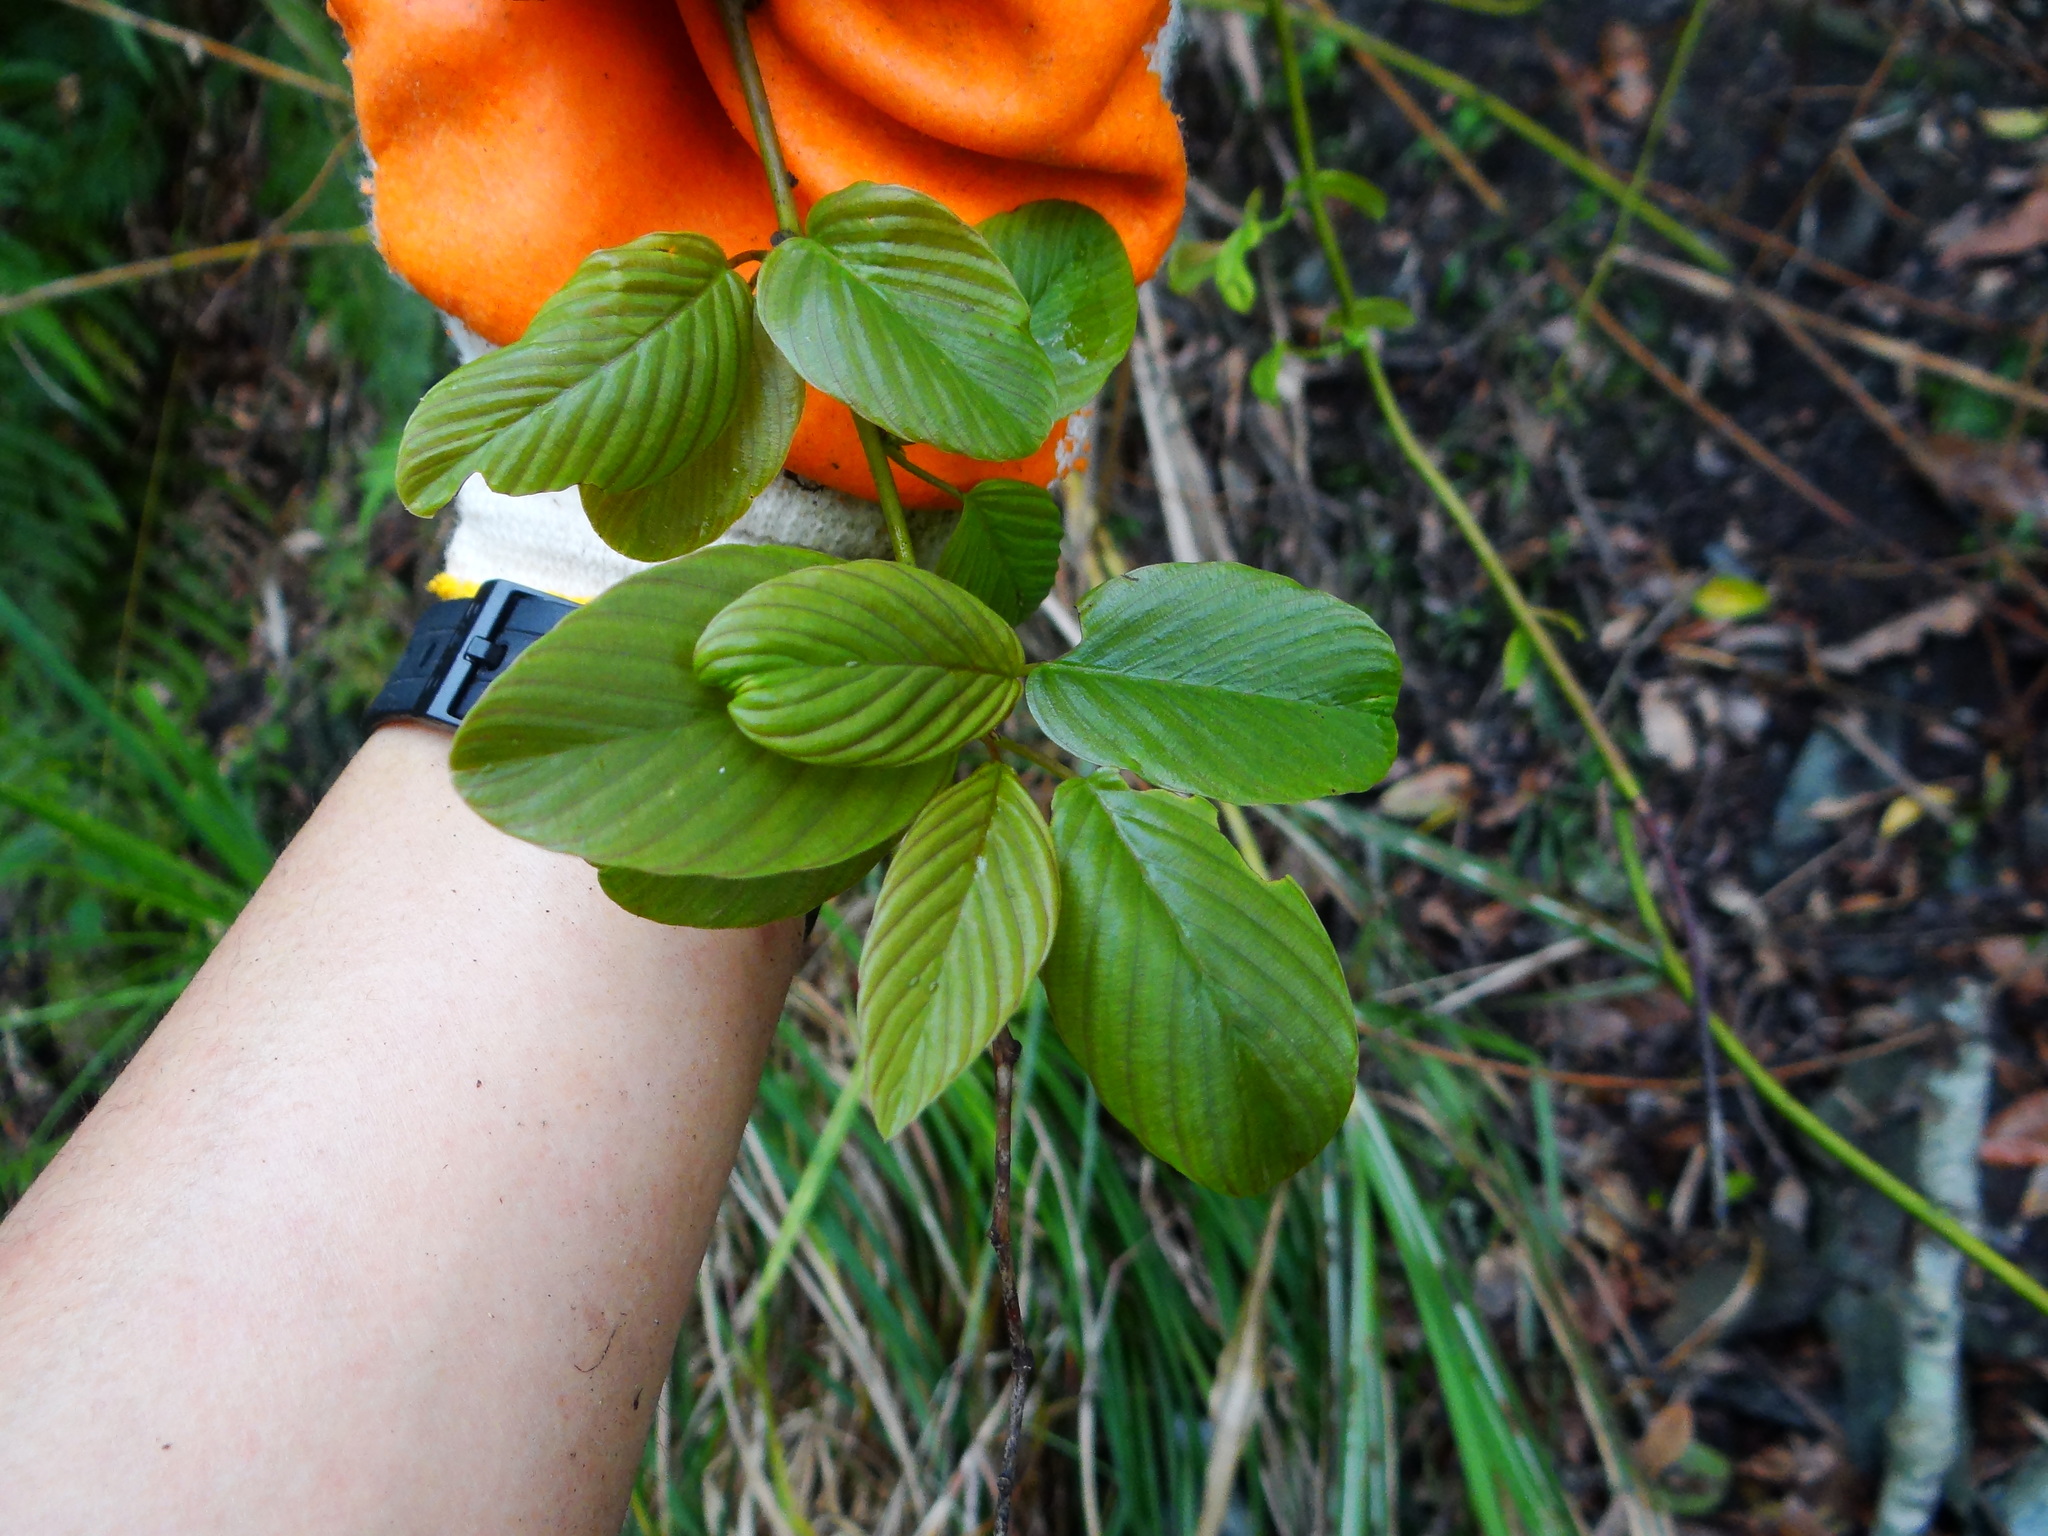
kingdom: Plantae
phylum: Tracheophyta
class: Magnoliopsida
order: Rosales
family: Rhamnaceae
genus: Berchemia
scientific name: Berchemia formosana
